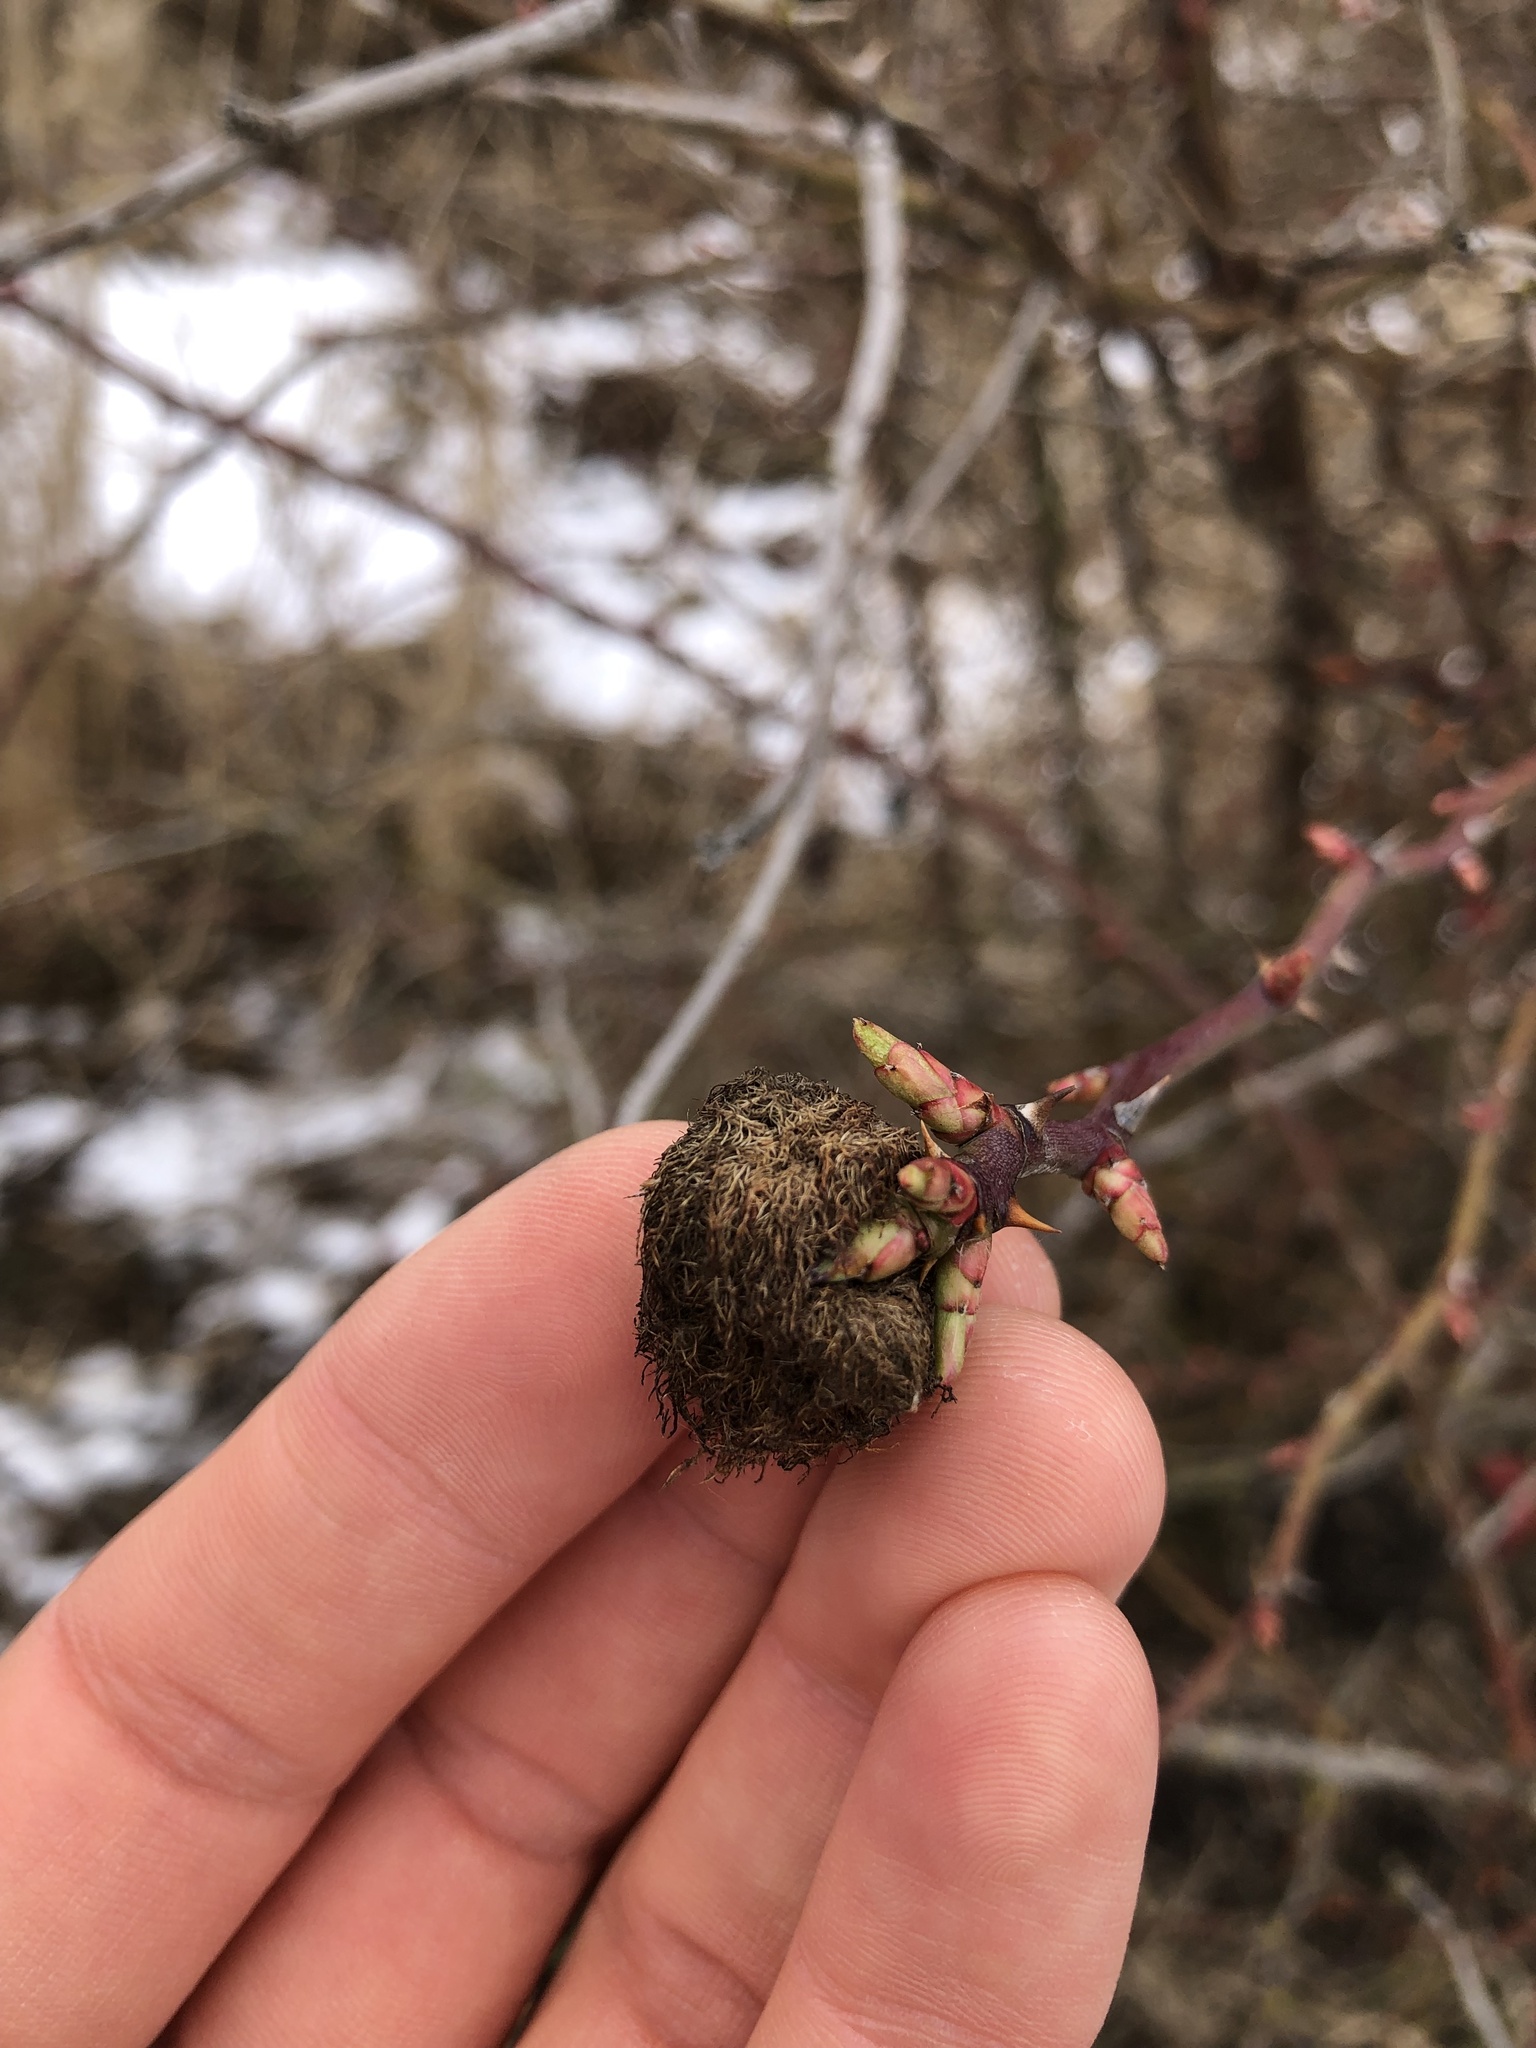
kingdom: Animalia
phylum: Arthropoda
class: Insecta
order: Hymenoptera
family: Cynipidae
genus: Diplolepis
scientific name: Diplolepis rosae
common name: Bedeguar gall
